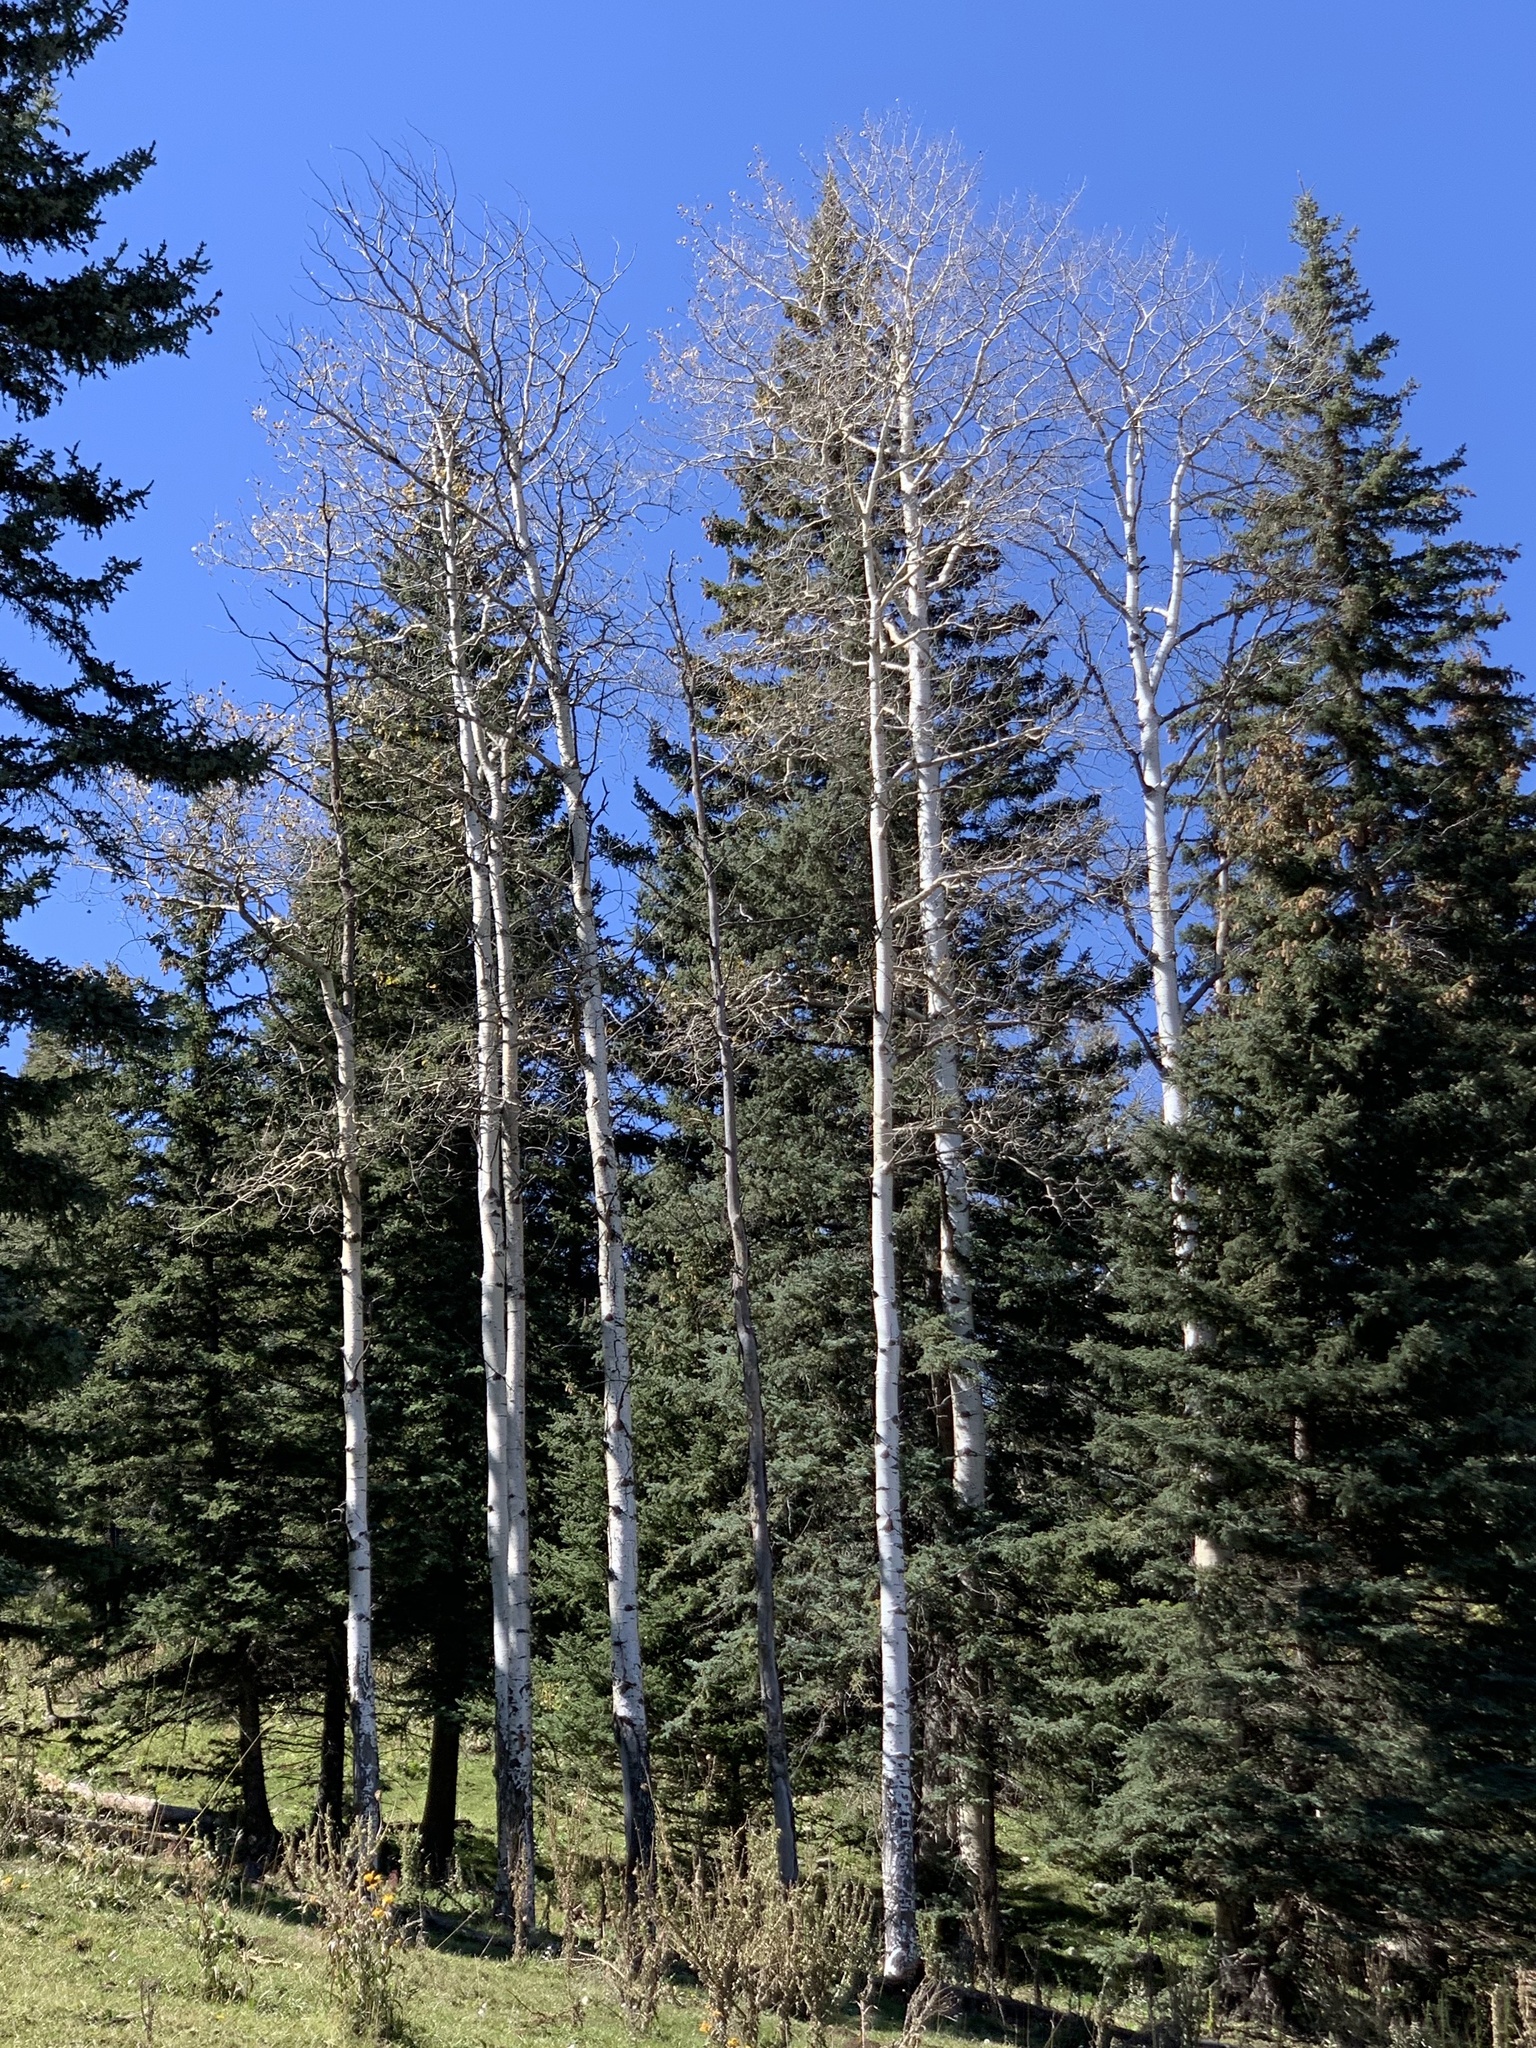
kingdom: Plantae
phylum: Tracheophyta
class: Magnoliopsida
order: Malpighiales
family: Salicaceae
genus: Populus
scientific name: Populus tremuloides
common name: Quaking aspen
